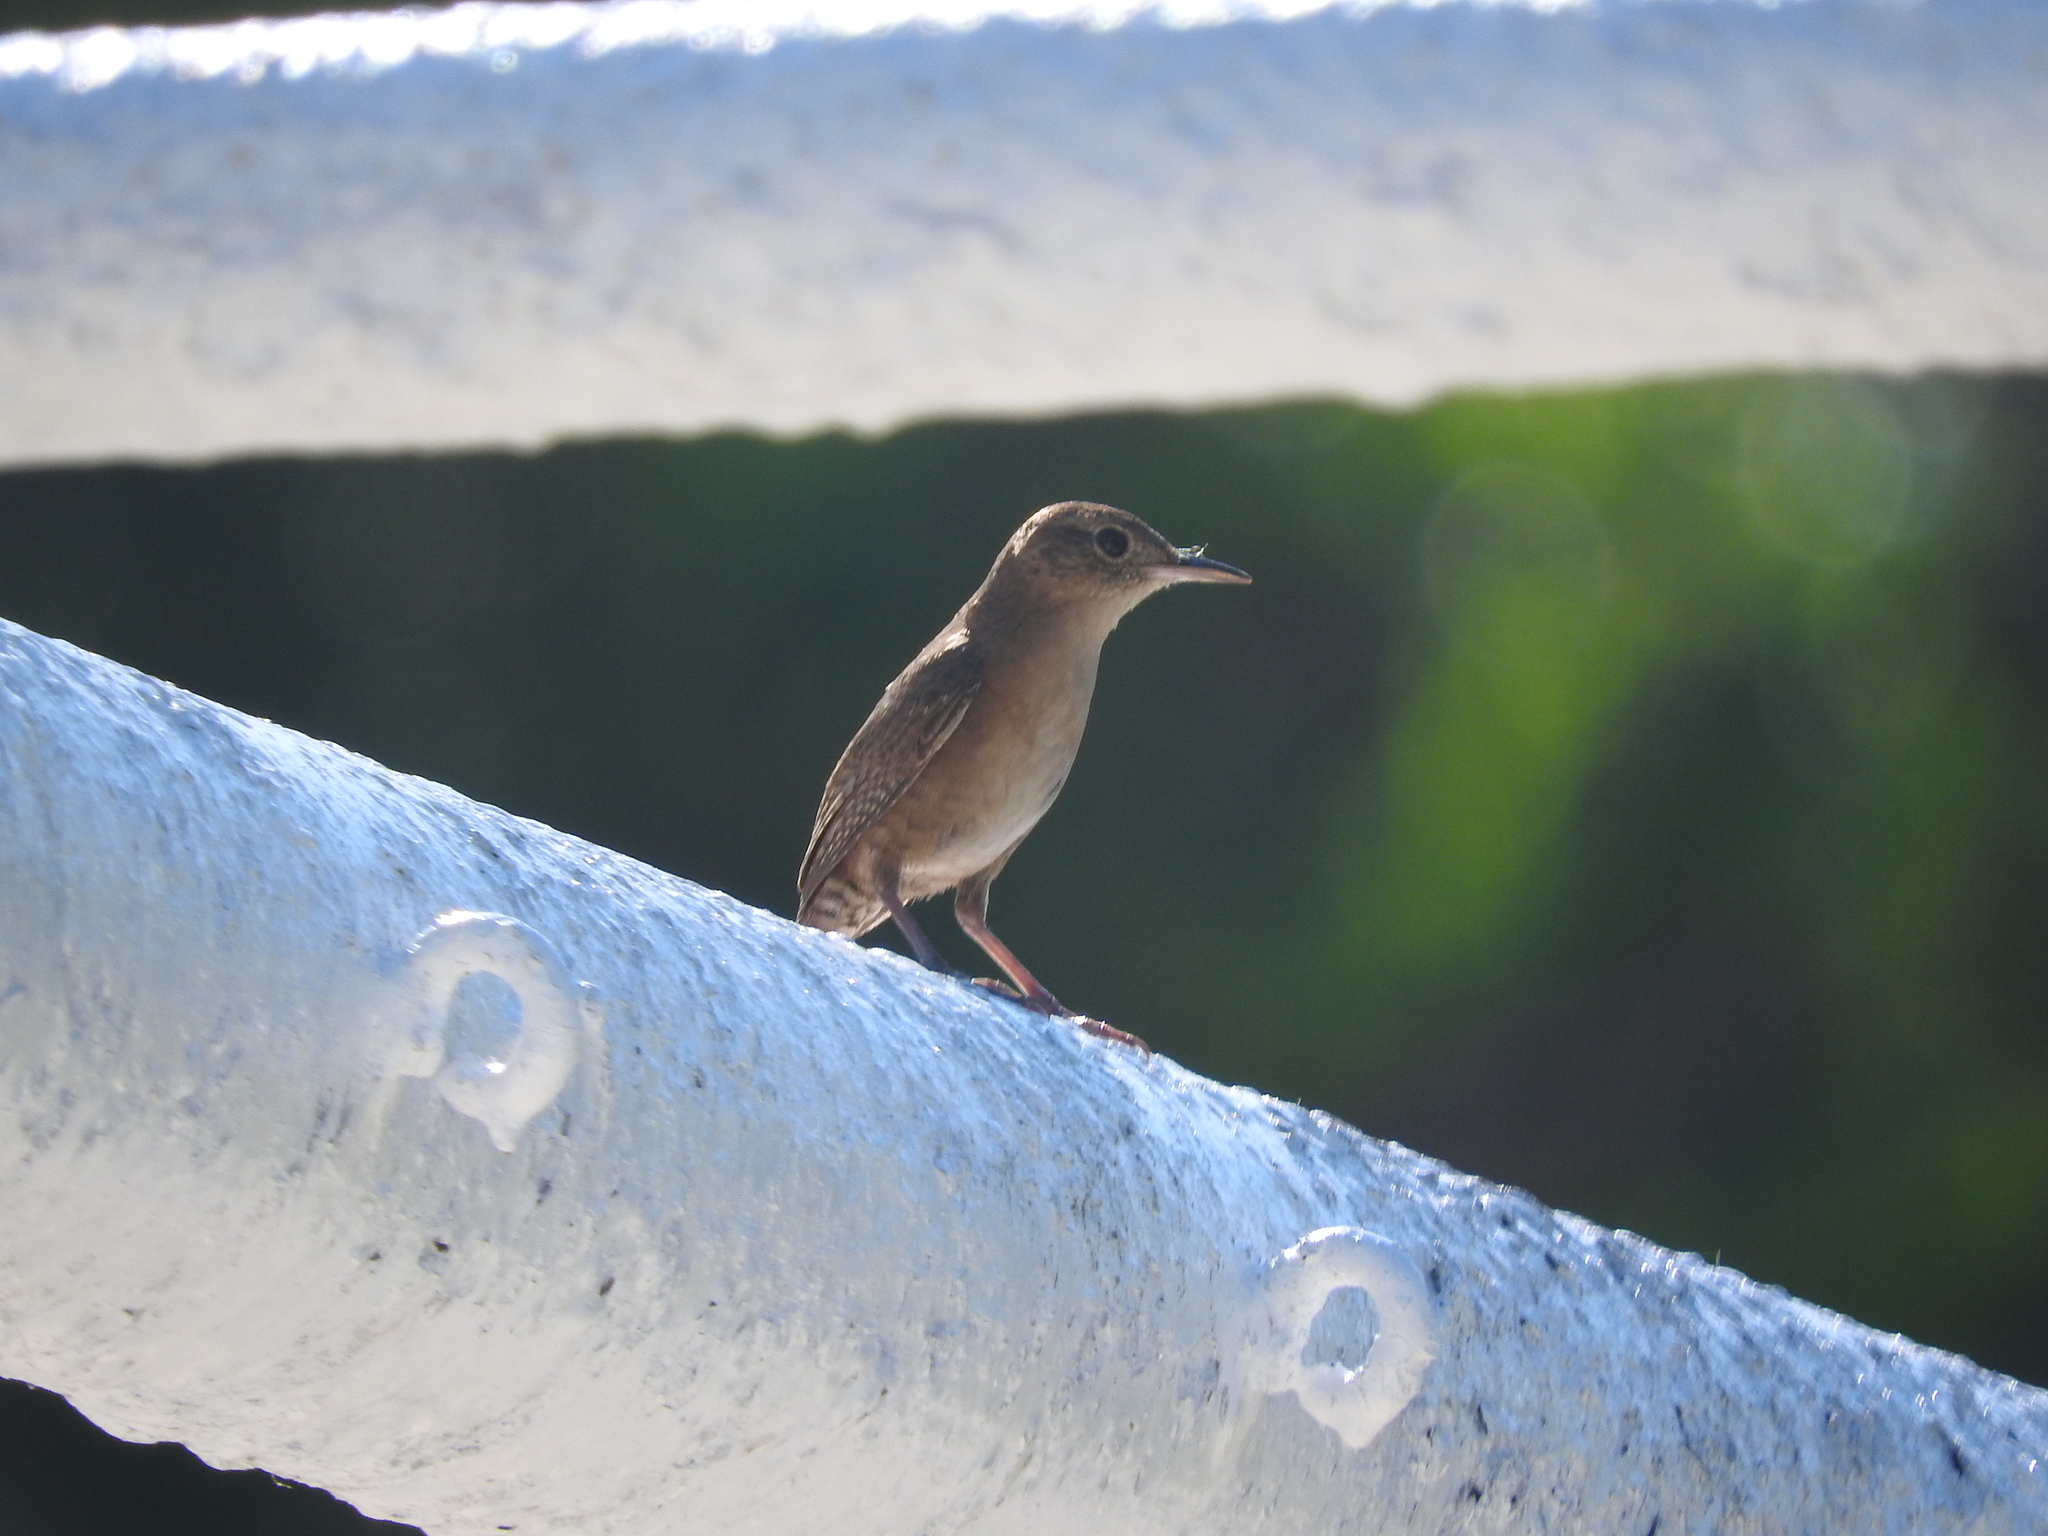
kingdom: Animalia
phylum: Chordata
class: Aves
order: Passeriformes
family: Troglodytidae
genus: Troglodytes
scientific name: Troglodytes aedon
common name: House wren
